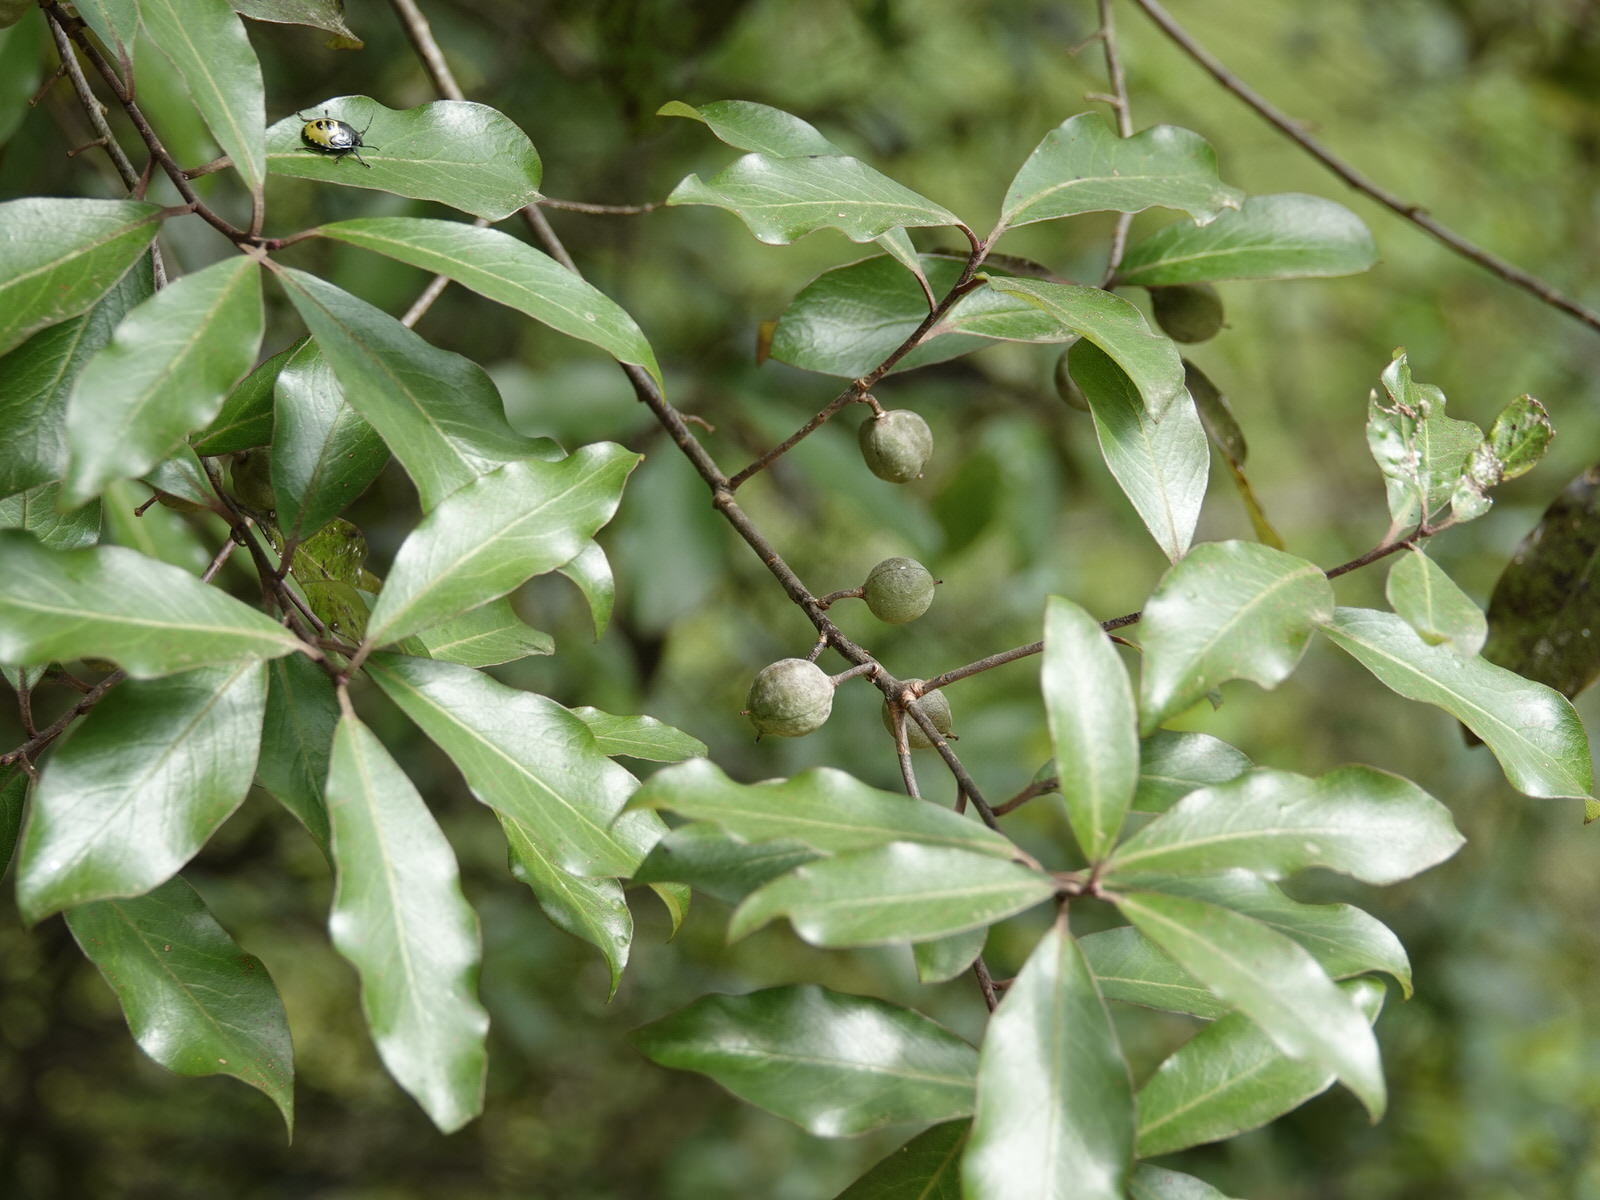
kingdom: Plantae
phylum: Tracheophyta
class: Magnoliopsida
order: Apiales
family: Pittosporaceae
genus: Pittosporum
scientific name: Pittosporum tenuifolium
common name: Kohuhu
